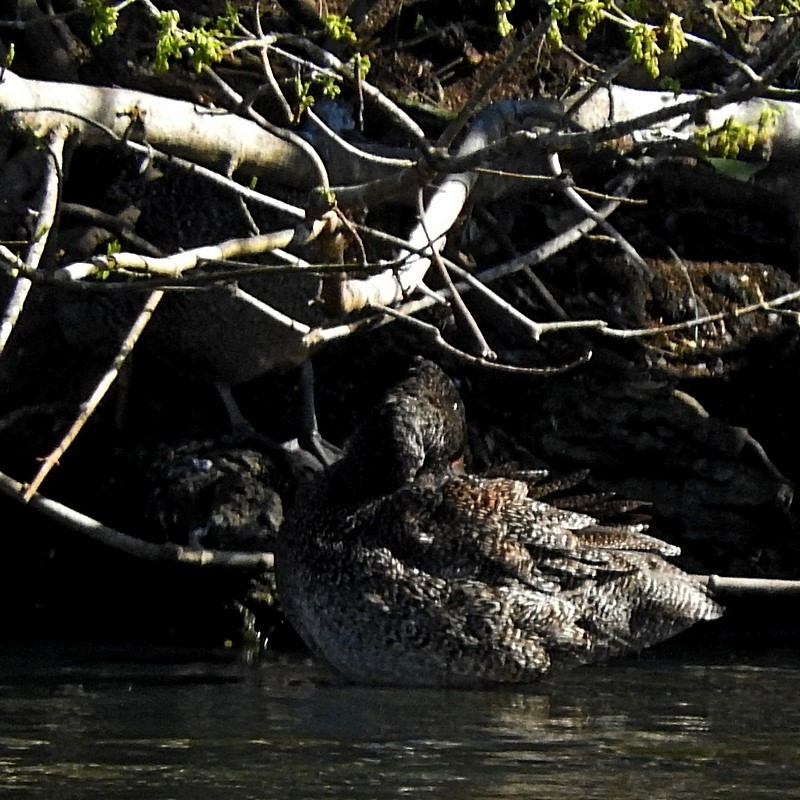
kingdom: Animalia
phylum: Chordata
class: Aves
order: Anseriformes
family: Anatidae
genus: Stictonetta
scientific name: Stictonetta naevosa
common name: Freckled duck
